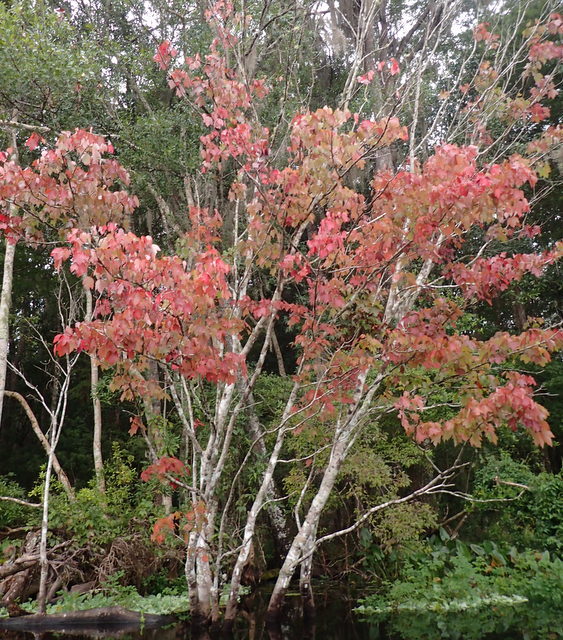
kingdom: Plantae
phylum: Tracheophyta
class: Magnoliopsida
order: Sapindales
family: Sapindaceae
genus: Acer
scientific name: Acer rubrum
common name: Red maple
